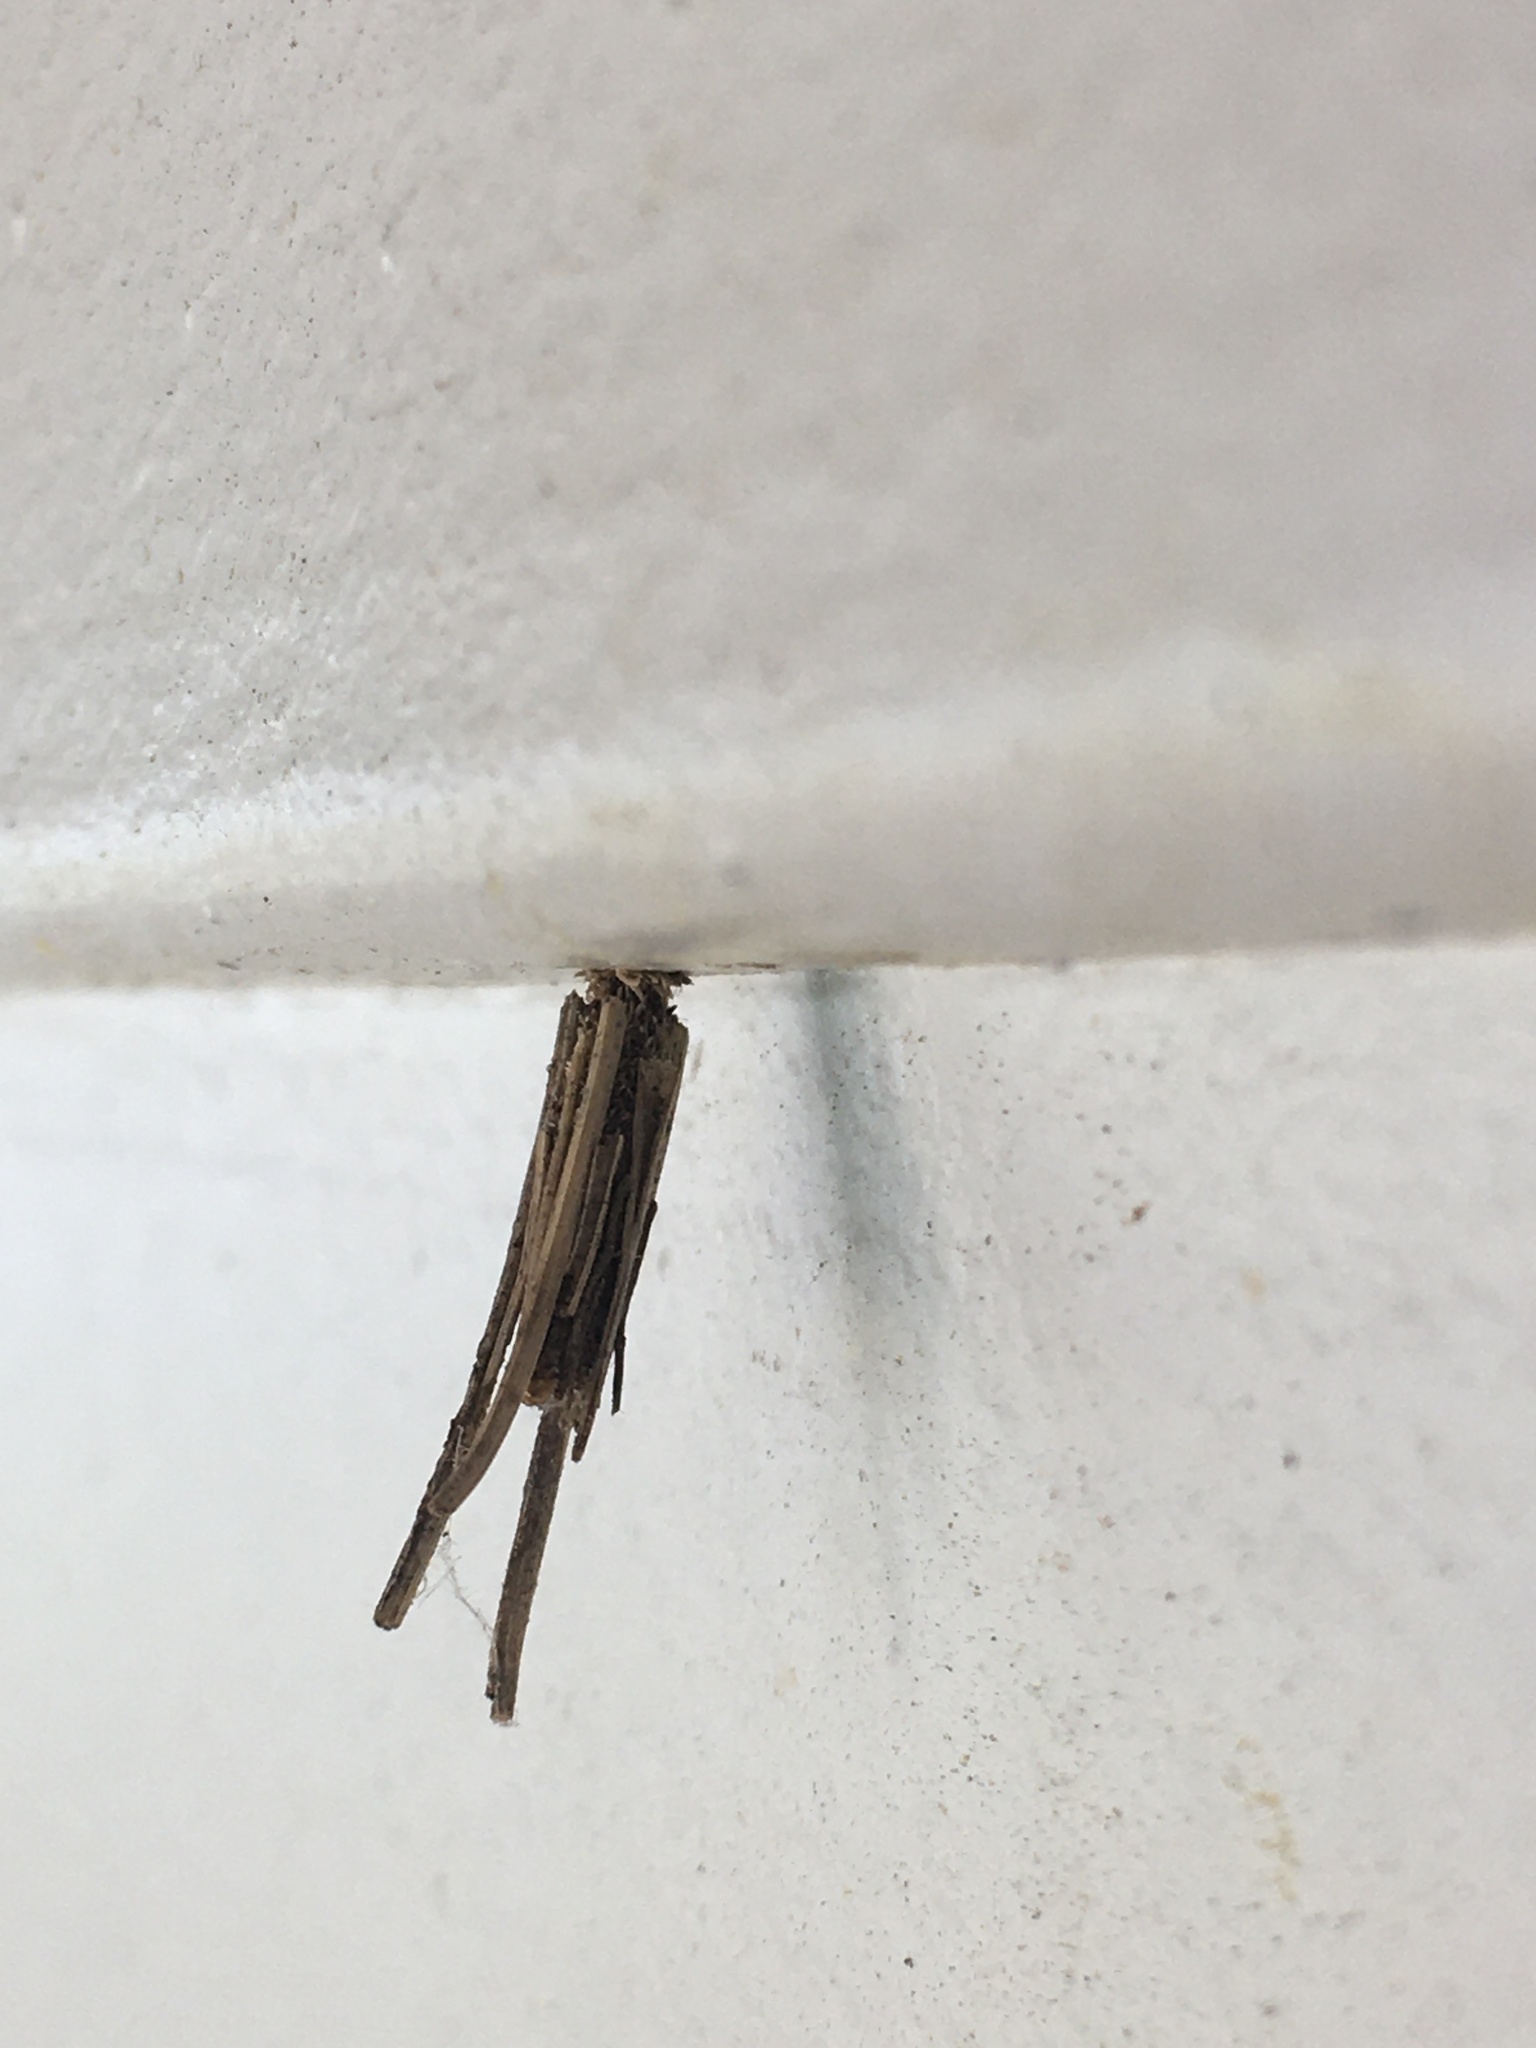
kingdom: Animalia
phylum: Arthropoda
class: Insecta
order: Lepidoptera
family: Psychidae
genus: Psyche
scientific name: Psyche casta
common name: Common sweep
